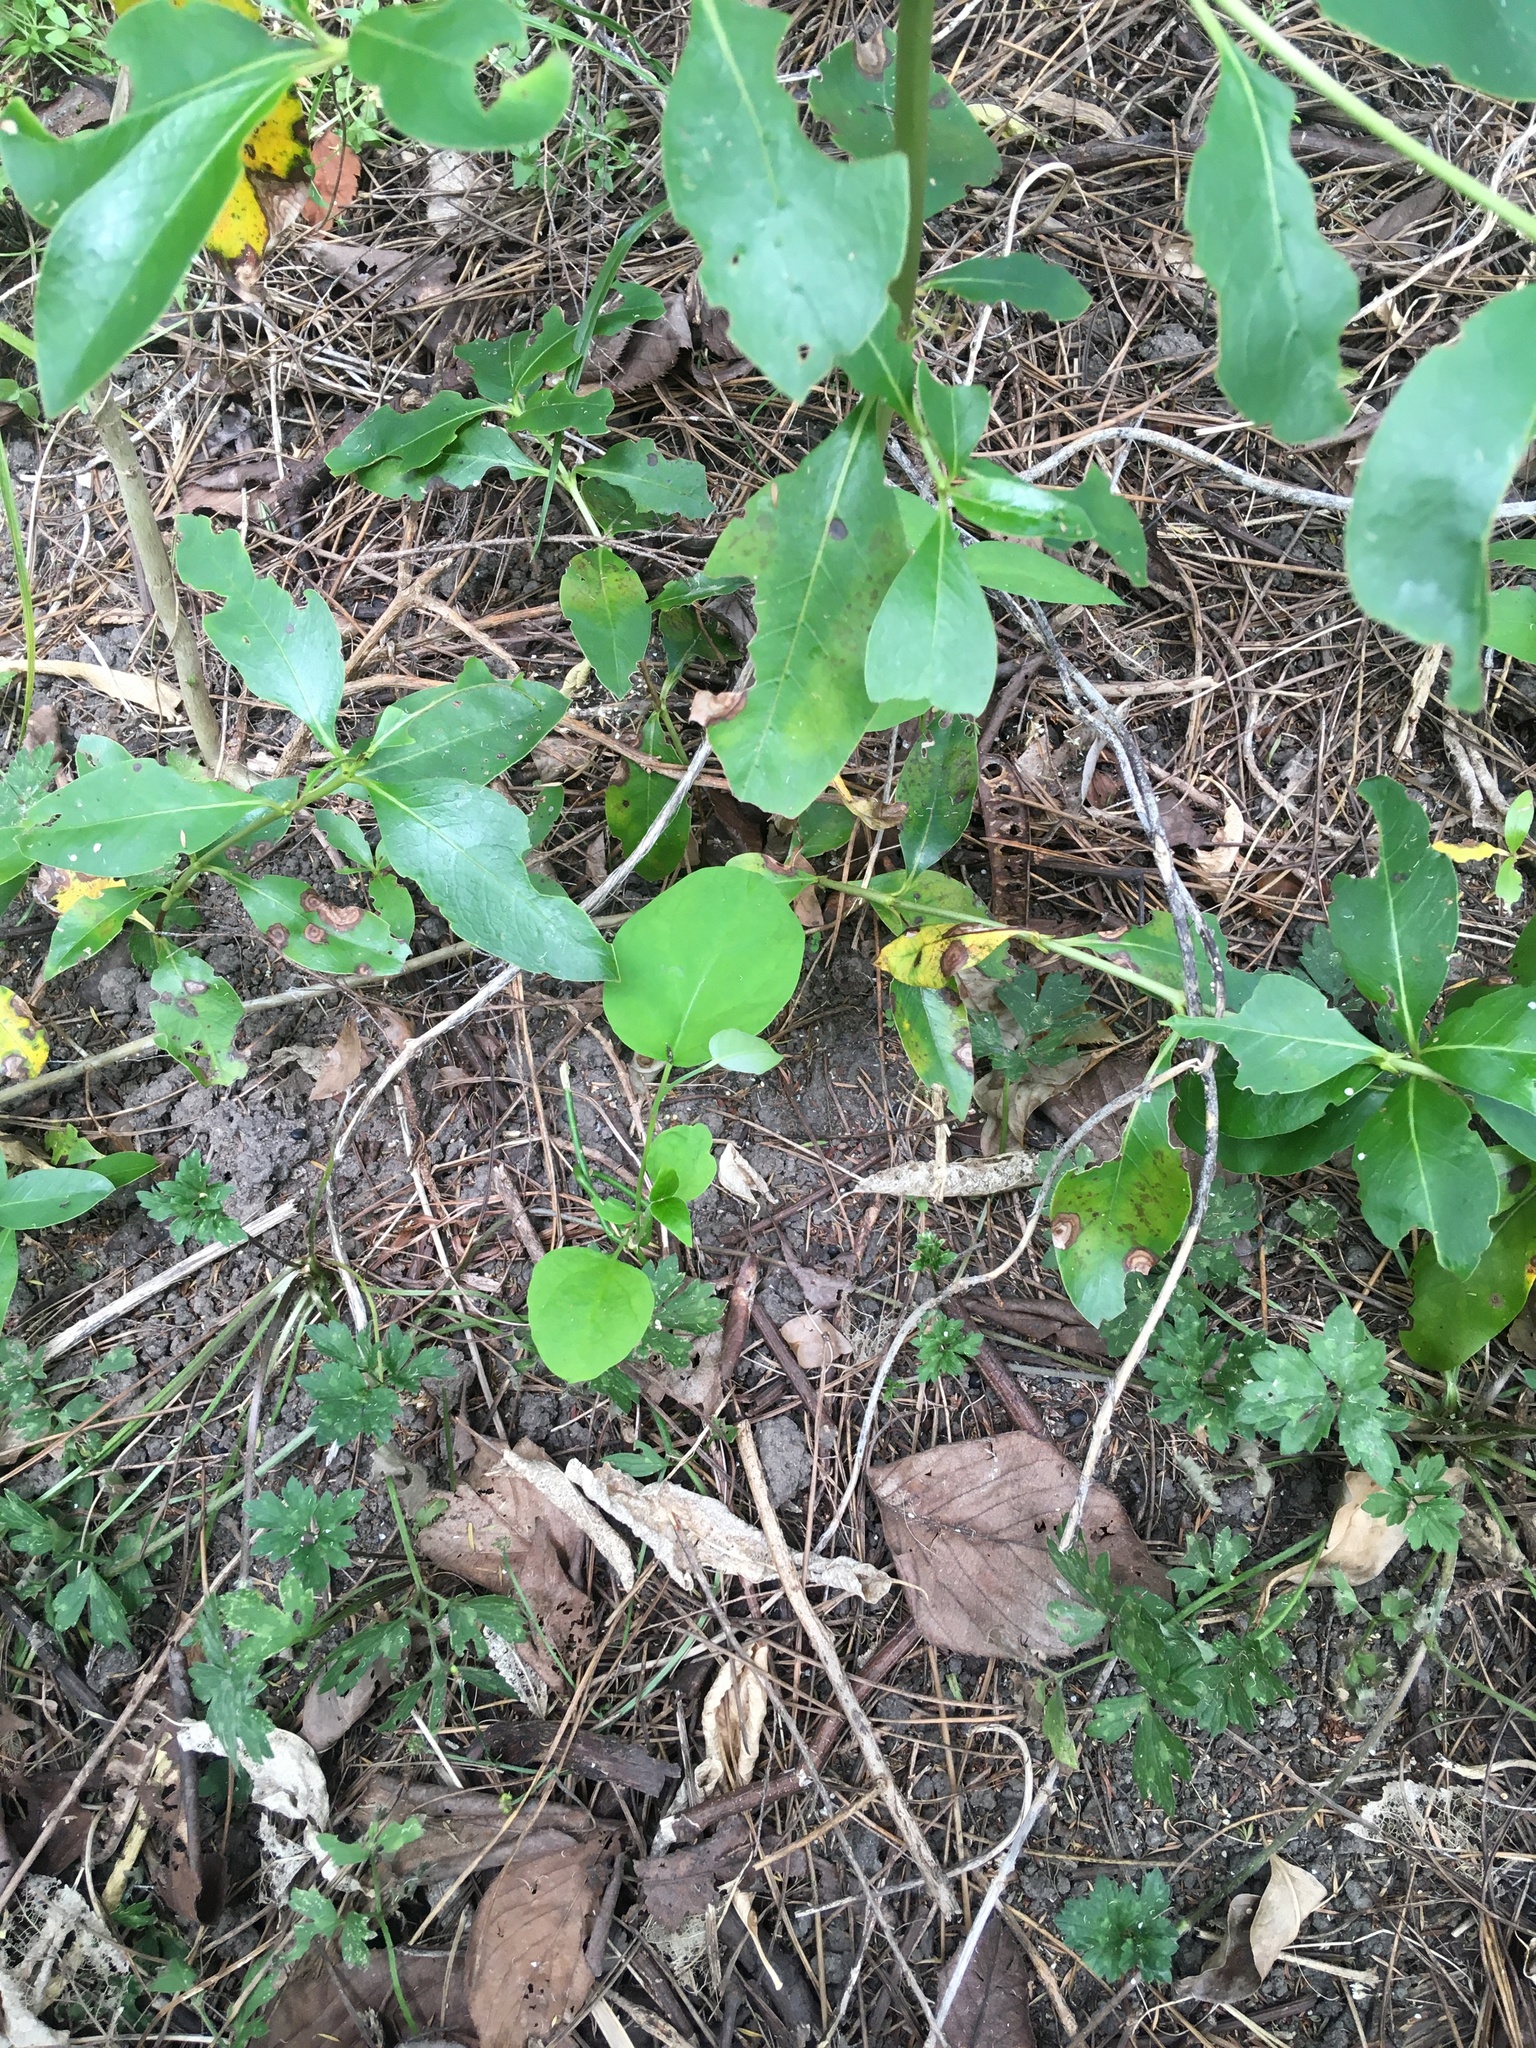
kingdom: Plantae
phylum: Tracheophyta
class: Magnoliopsida
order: Gentianales
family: Apocynaceae
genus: Araujia
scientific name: Araujia sericifera
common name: White bladderflower
